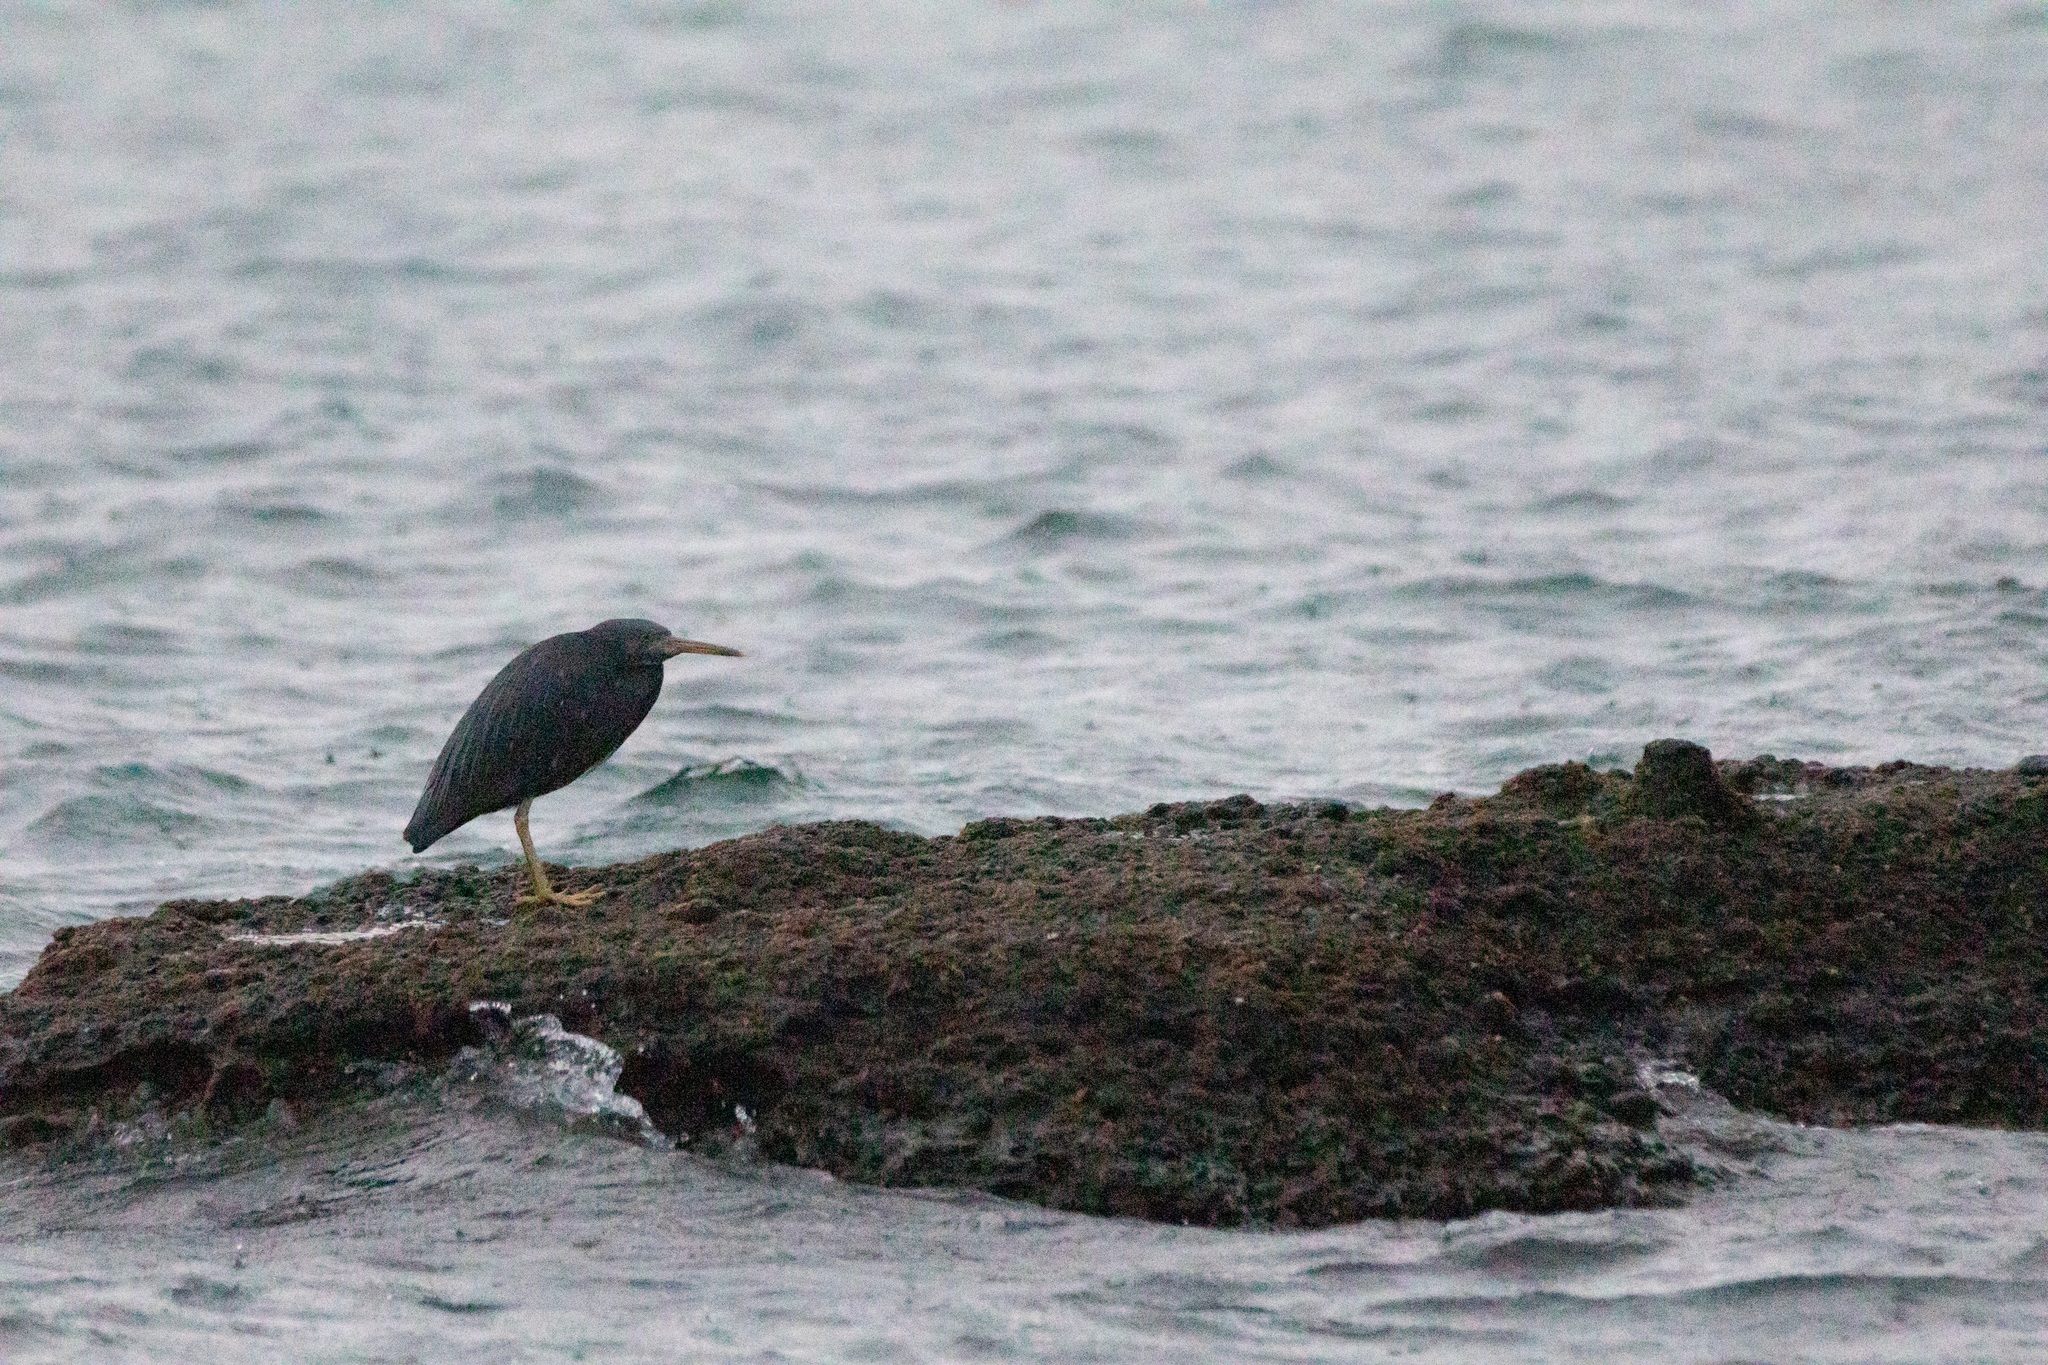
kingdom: Animalia
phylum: Chordata
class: Aves
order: Pelecaniformes
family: Ardeidae
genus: Egretta
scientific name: Egretta sacra
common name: Pacific reef heron
